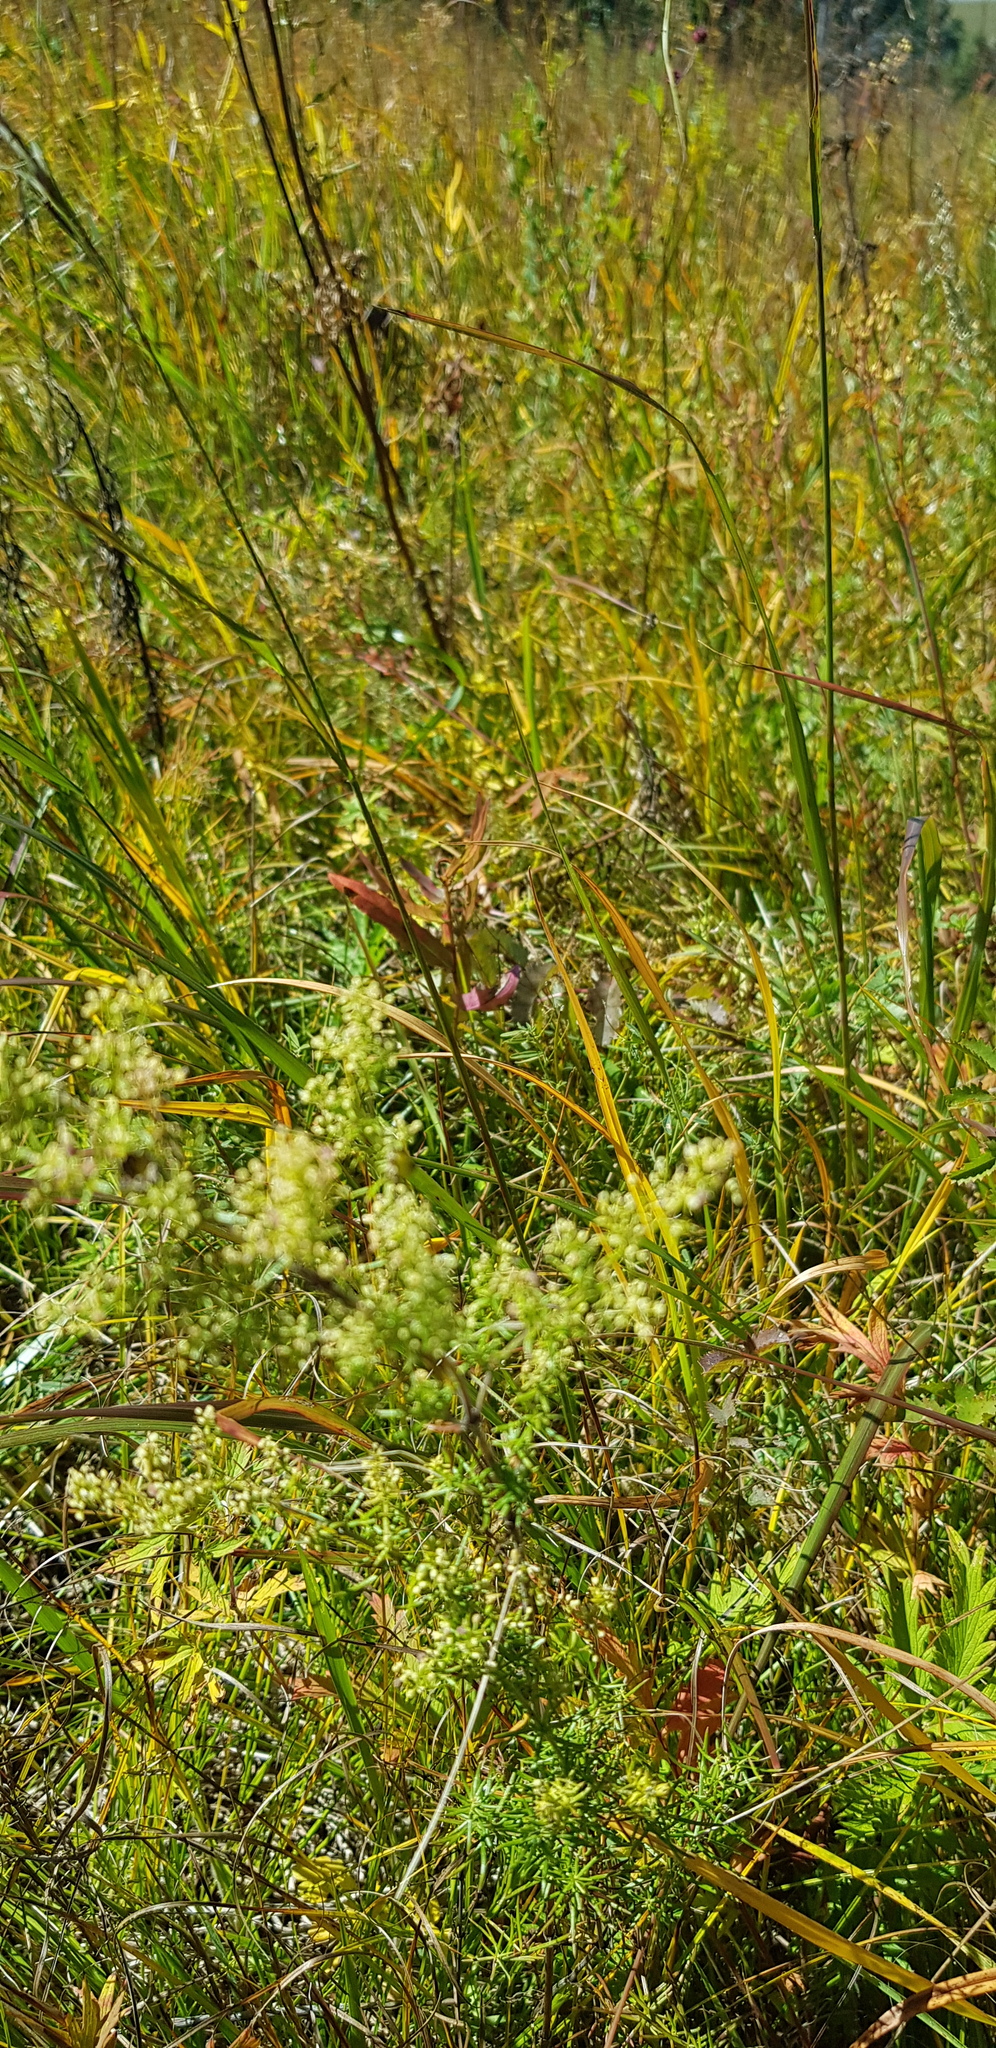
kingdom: Plantae
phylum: Tracheophyta
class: Magnoliopsida
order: Gentianales
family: Rubiaceae
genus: Galium
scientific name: Galium verum
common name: Lady's bedstraw
